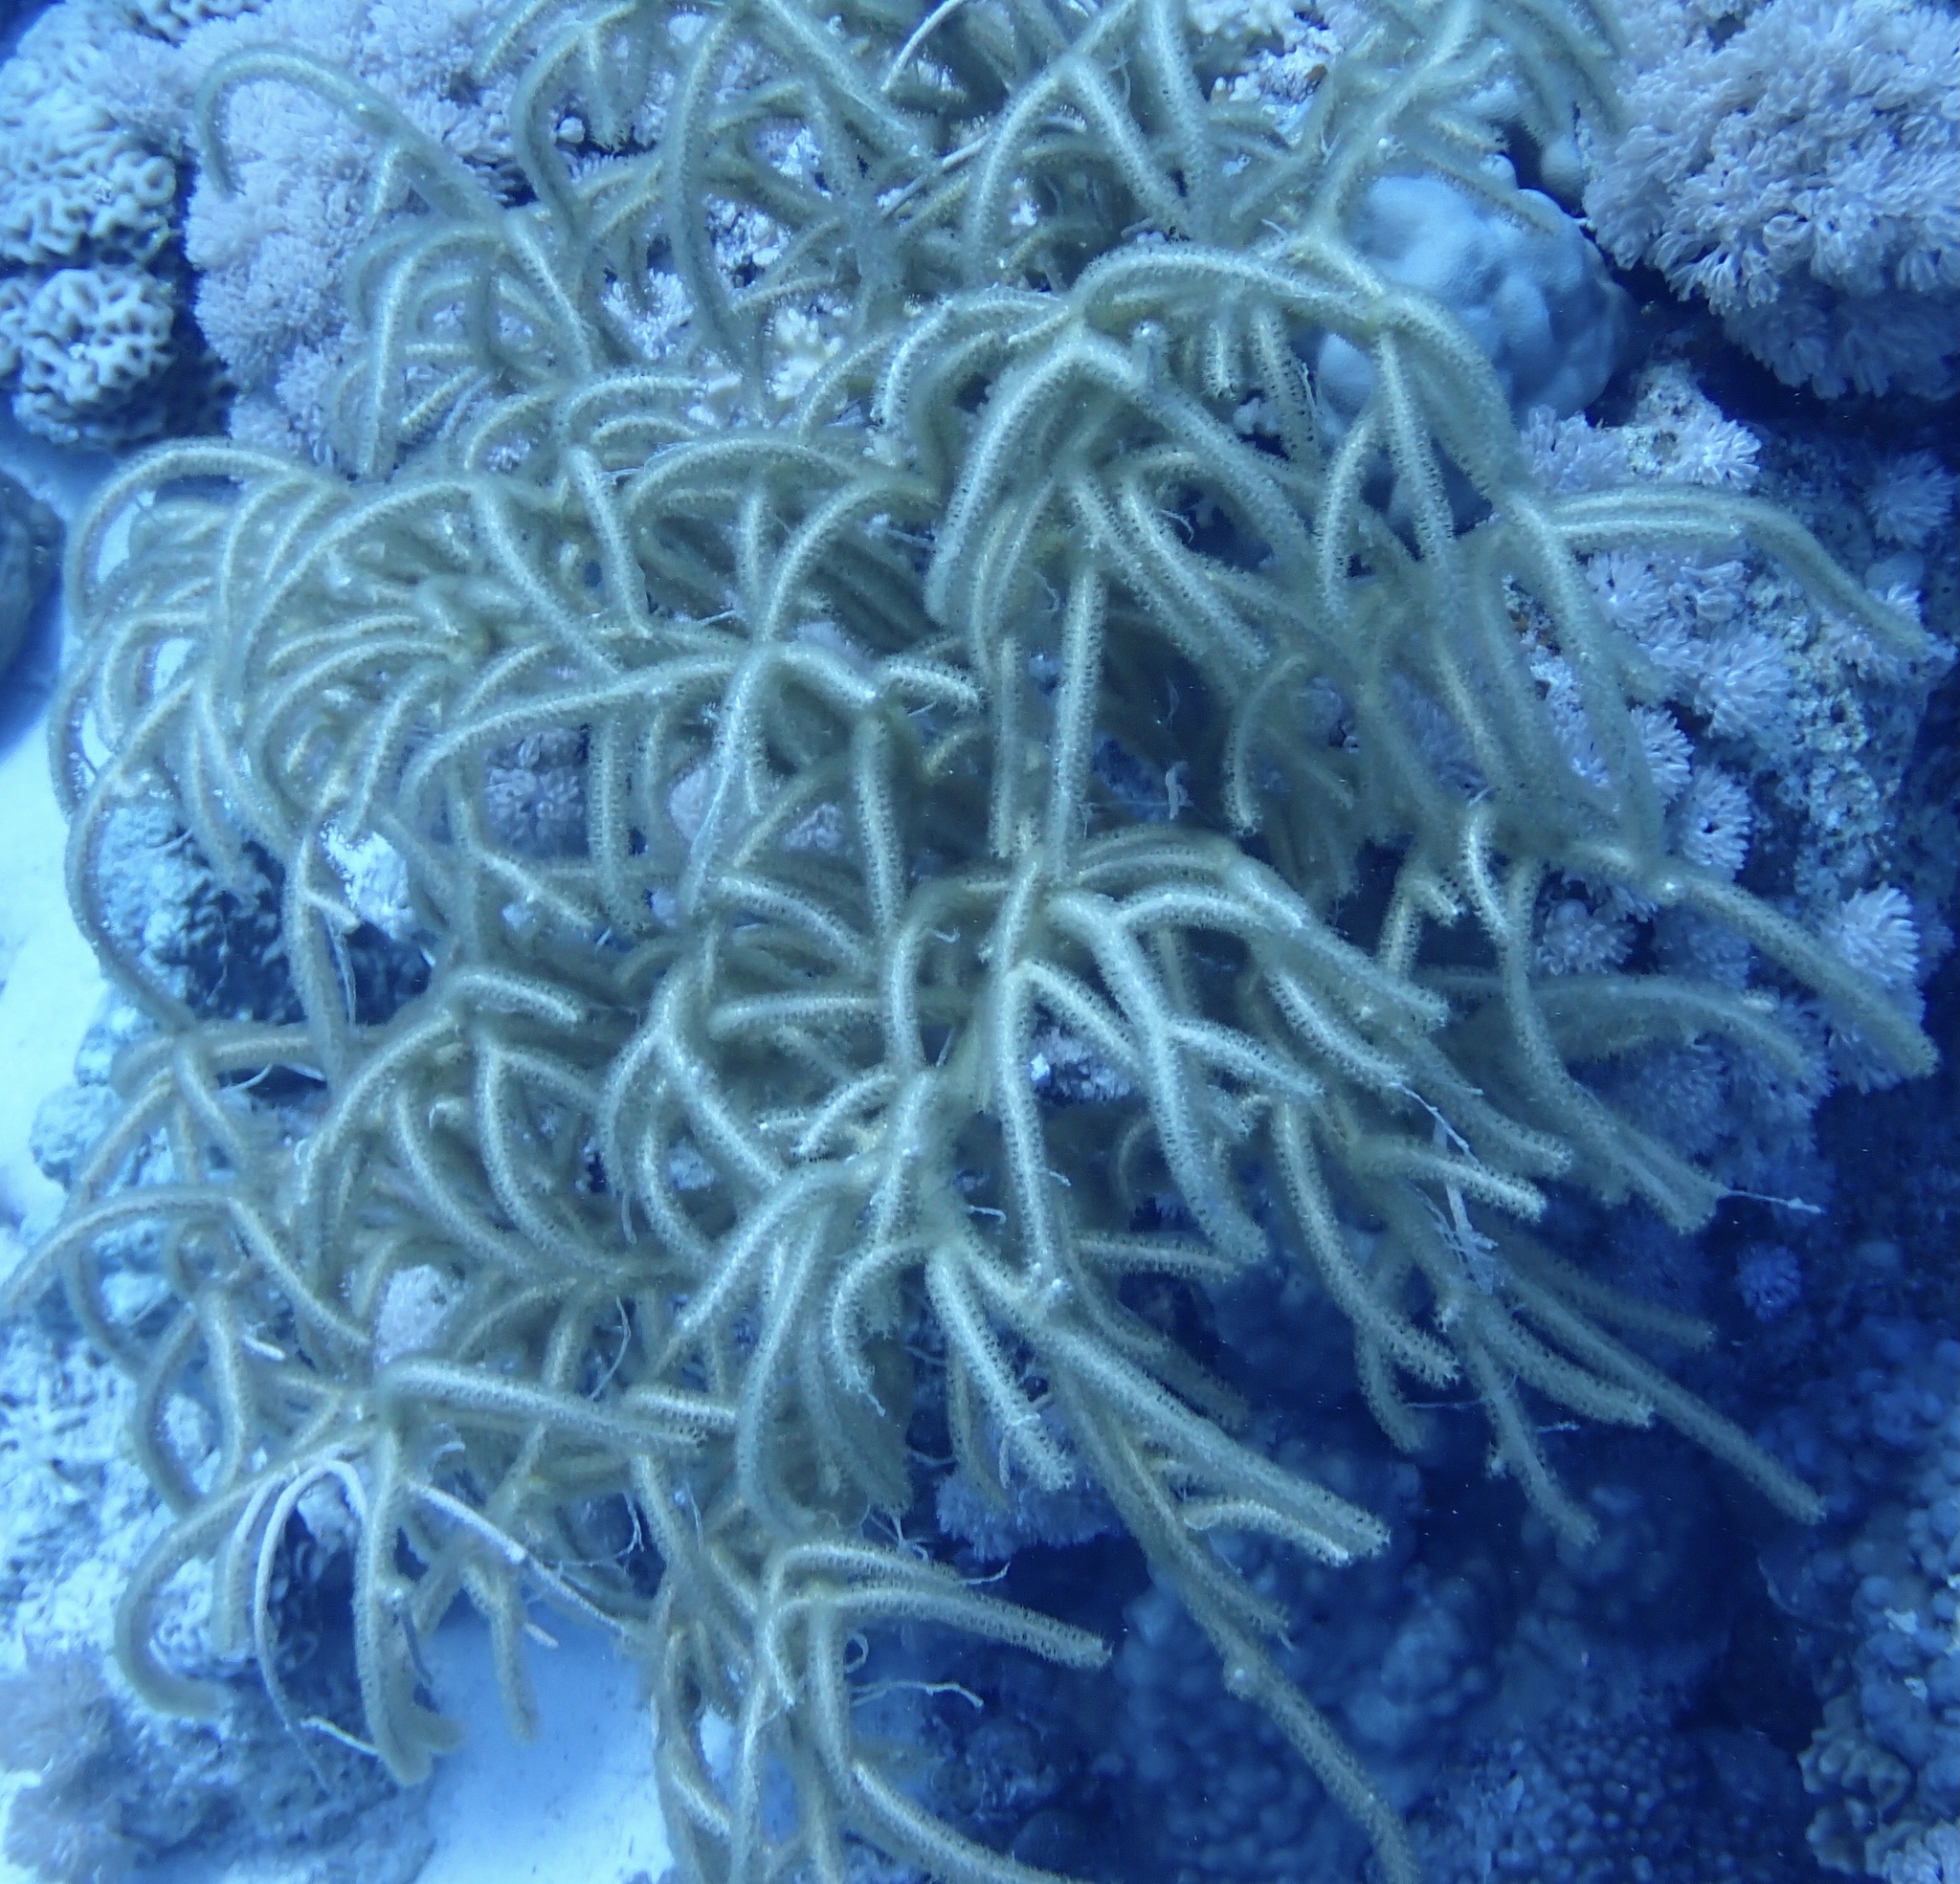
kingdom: Animalia
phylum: Cnidaria
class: Anthozoa
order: Malacalcyonacea
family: Isididae
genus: Rumphella
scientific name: Rumphella torta
